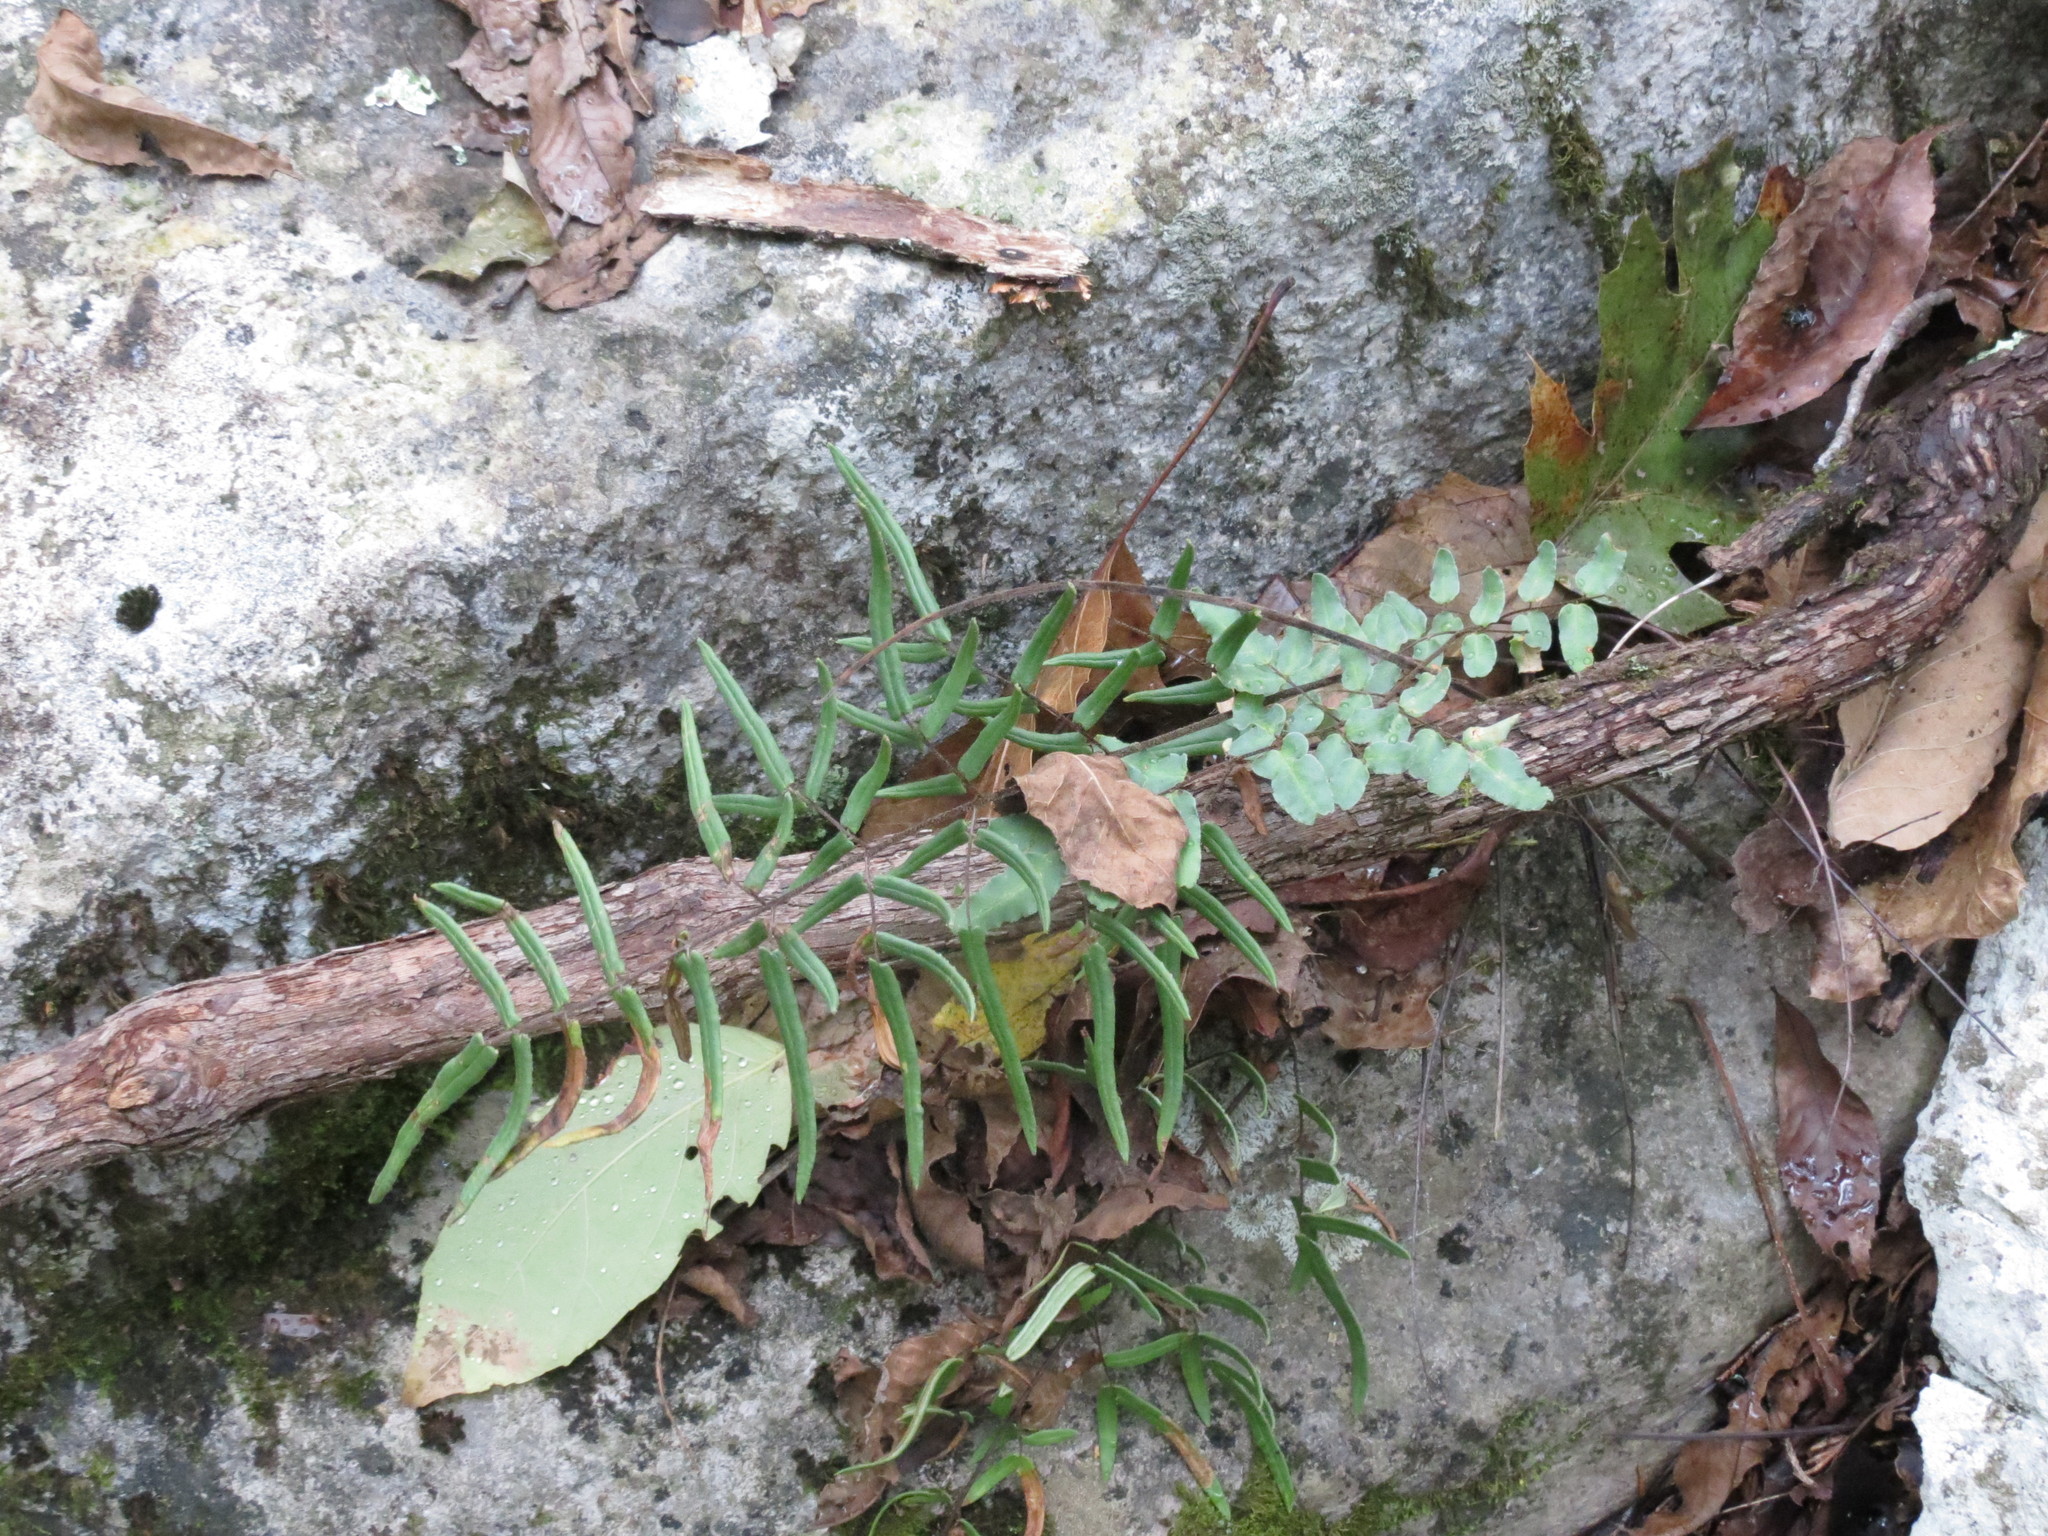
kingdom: Plantae
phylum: Tracheophyta
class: Polypodiopsida
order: Polypodiales
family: Pteridaceae
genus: Pellaea
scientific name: Pellaea atropurpurea
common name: Hairy cliffbrake
